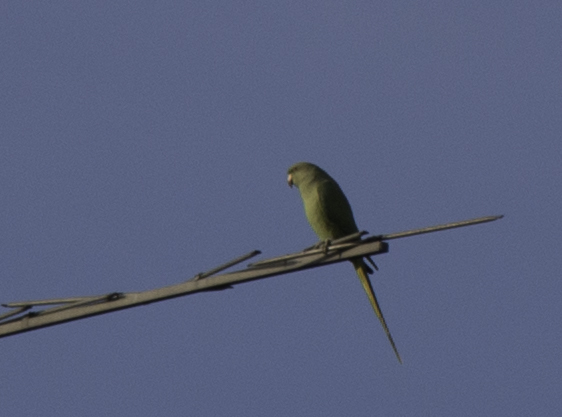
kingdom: Animalia
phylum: Chordata
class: Aves
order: Psittaciformes
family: Psittacidae
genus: Psittacula
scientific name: Psittacula krameri
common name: Rose-ringed parakeet
